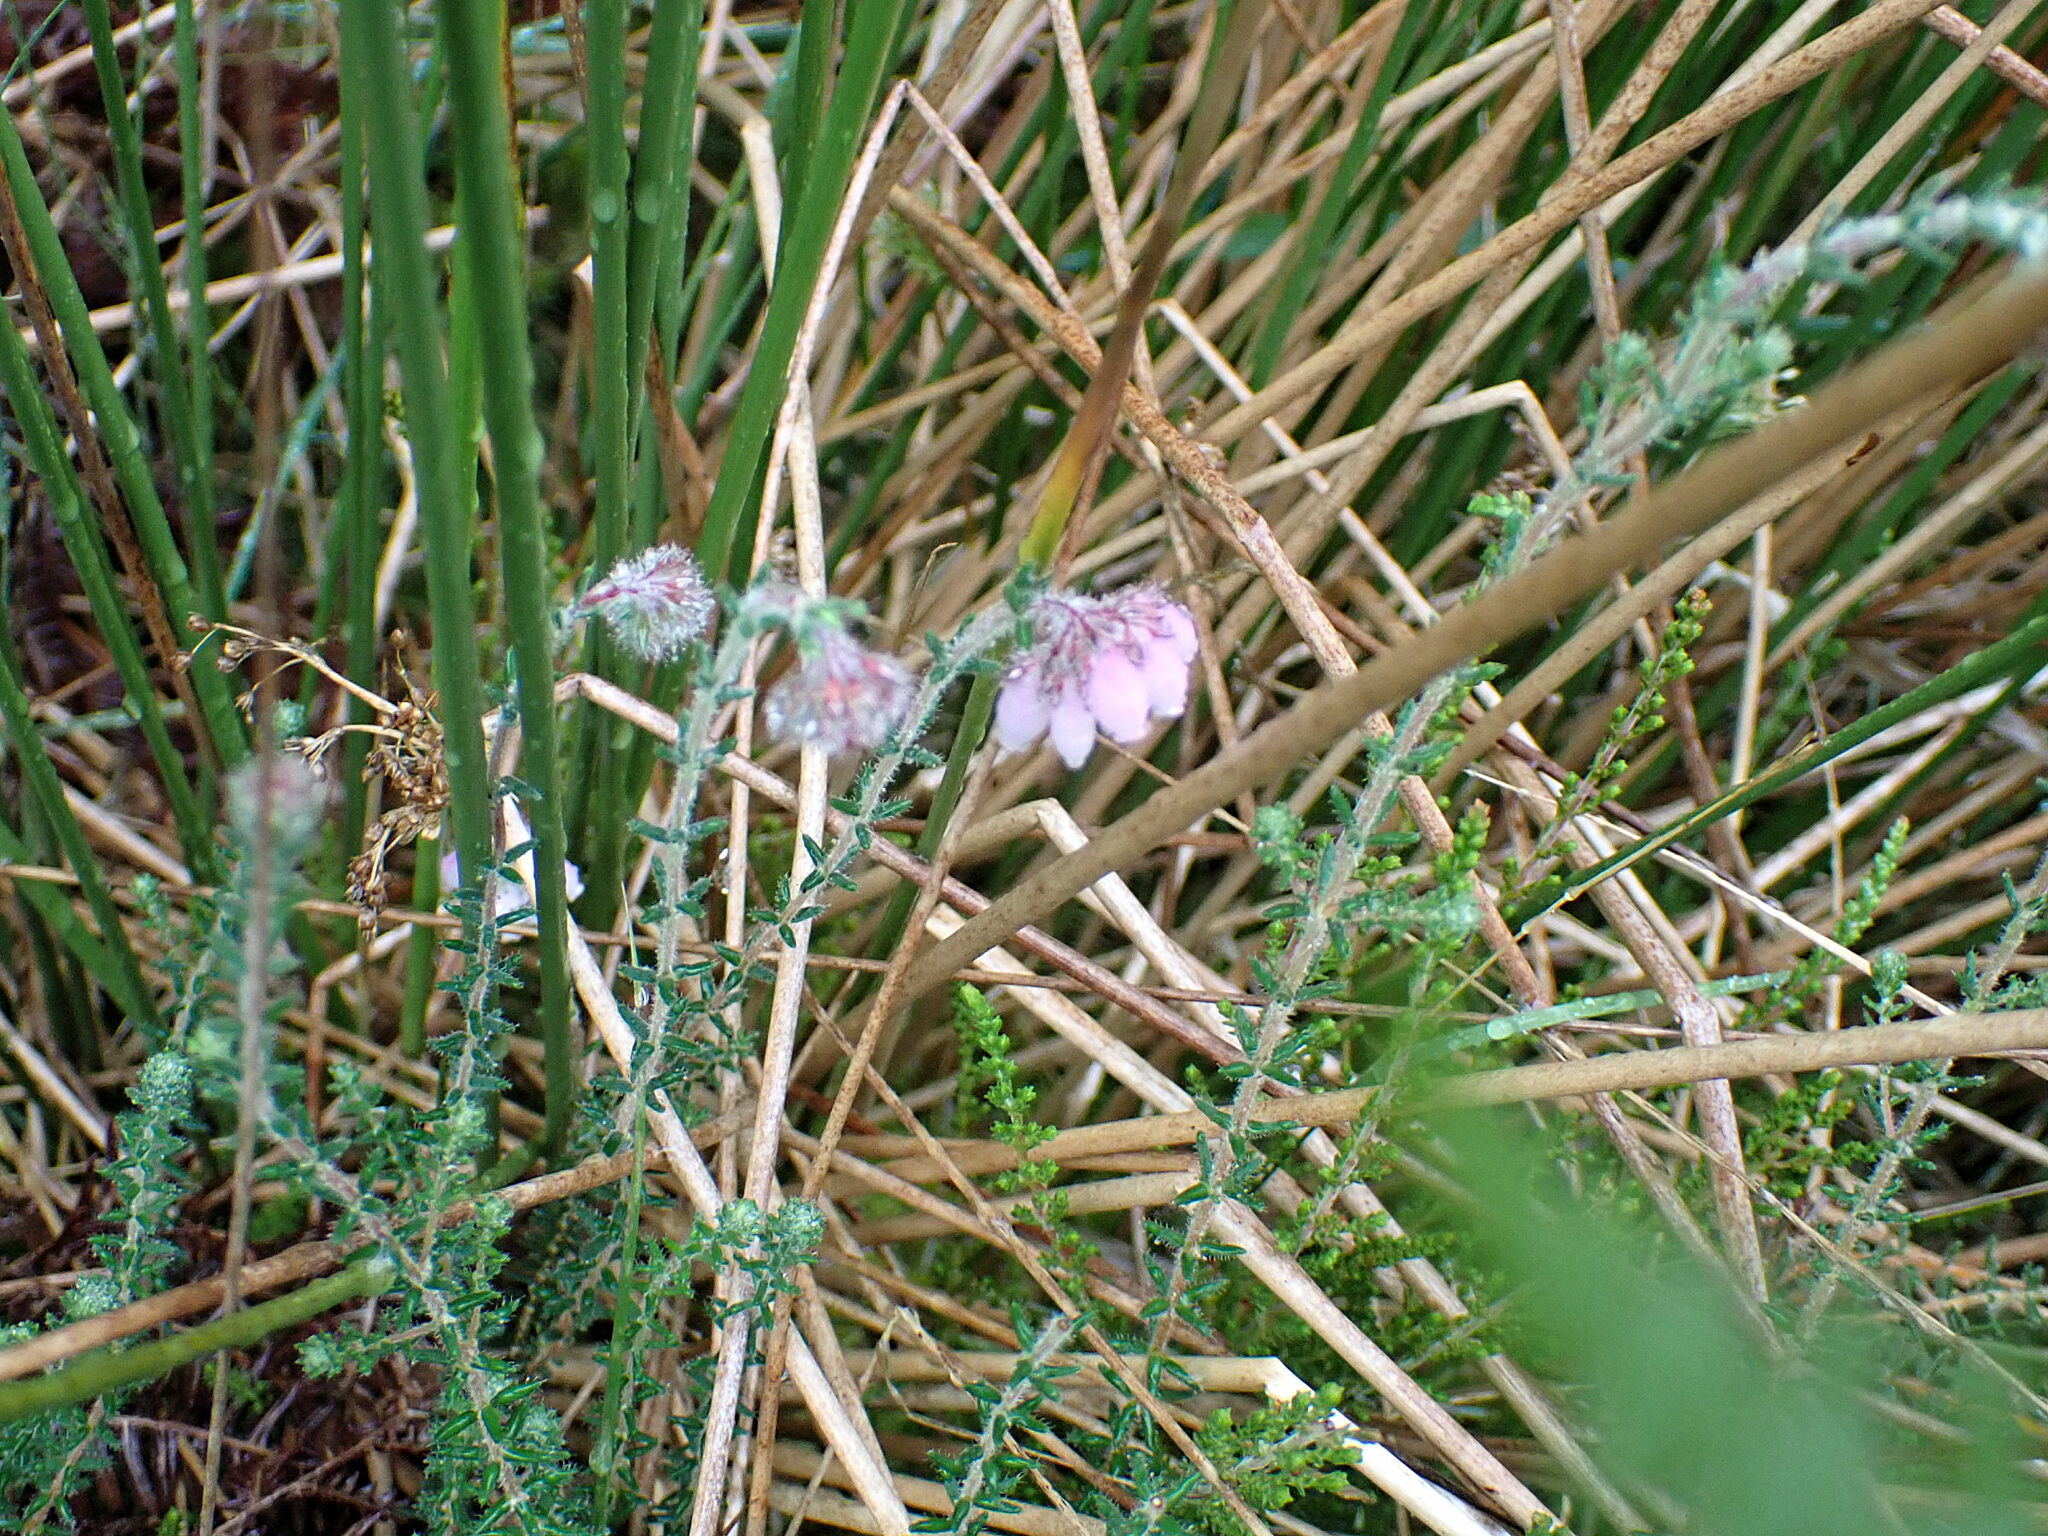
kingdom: Plantae
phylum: Tracheophyta
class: Magnoliopsida
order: Ericales
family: Ericaceae
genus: Erica
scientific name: Erica tetralix
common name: Cross-leaved heath
